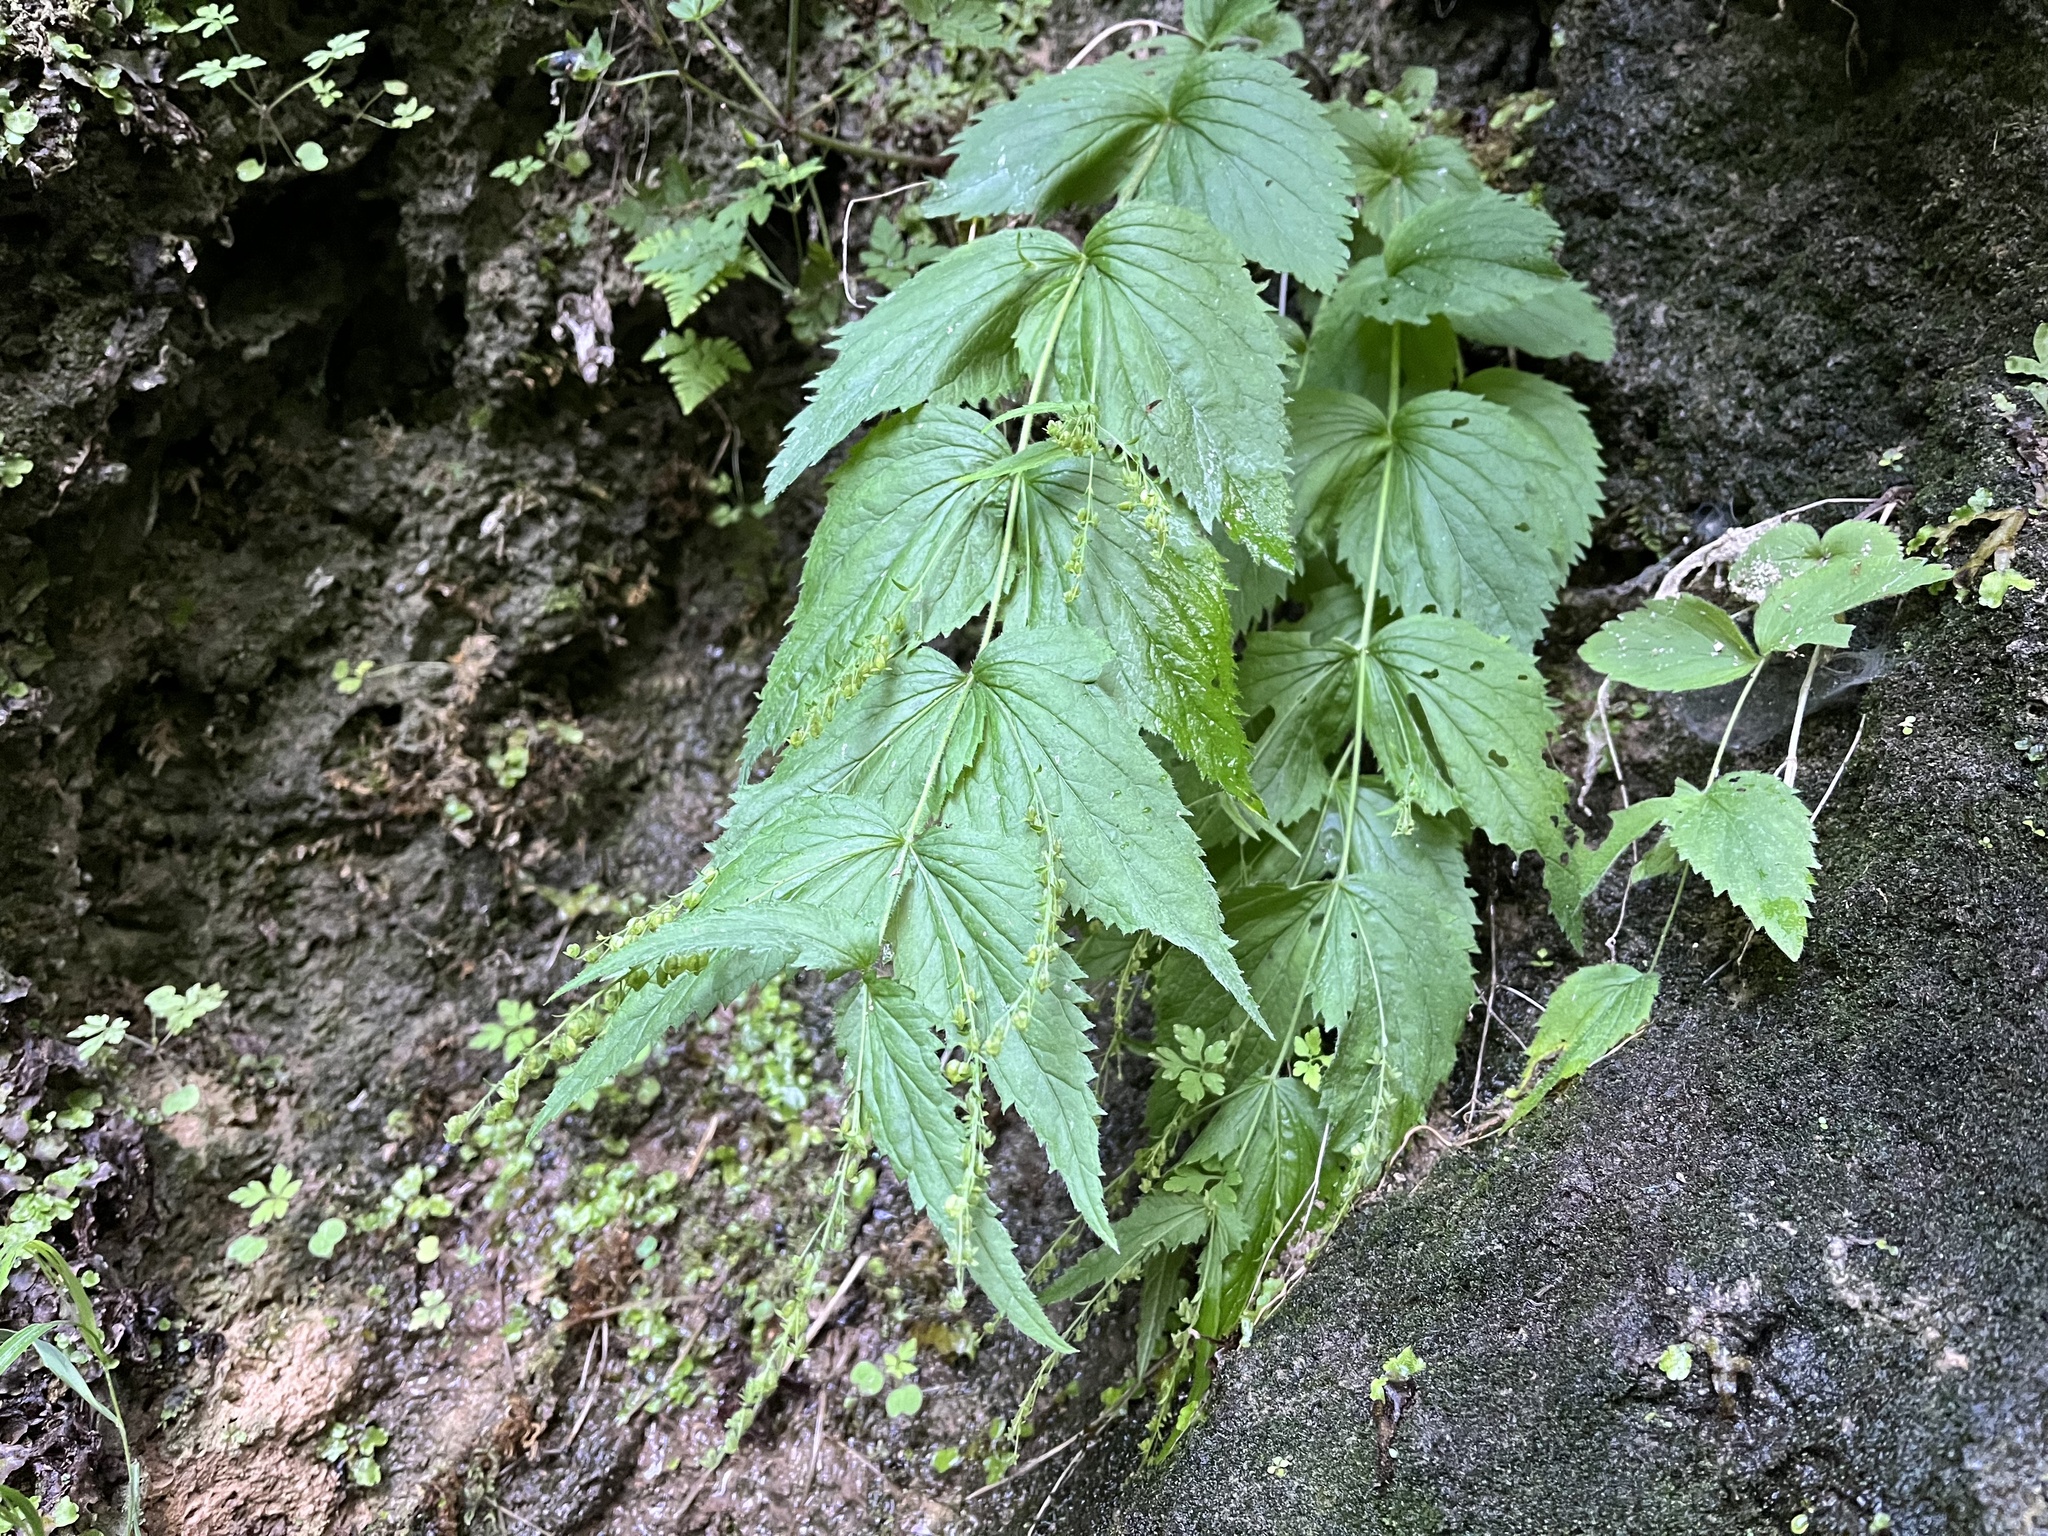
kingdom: Plantae
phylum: Tracheophyta
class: Magnoliopsida
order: Lamiales
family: Plantaginaceae
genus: Veronica
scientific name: Veronica urticifolia
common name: Nettle-leaf speedwell
